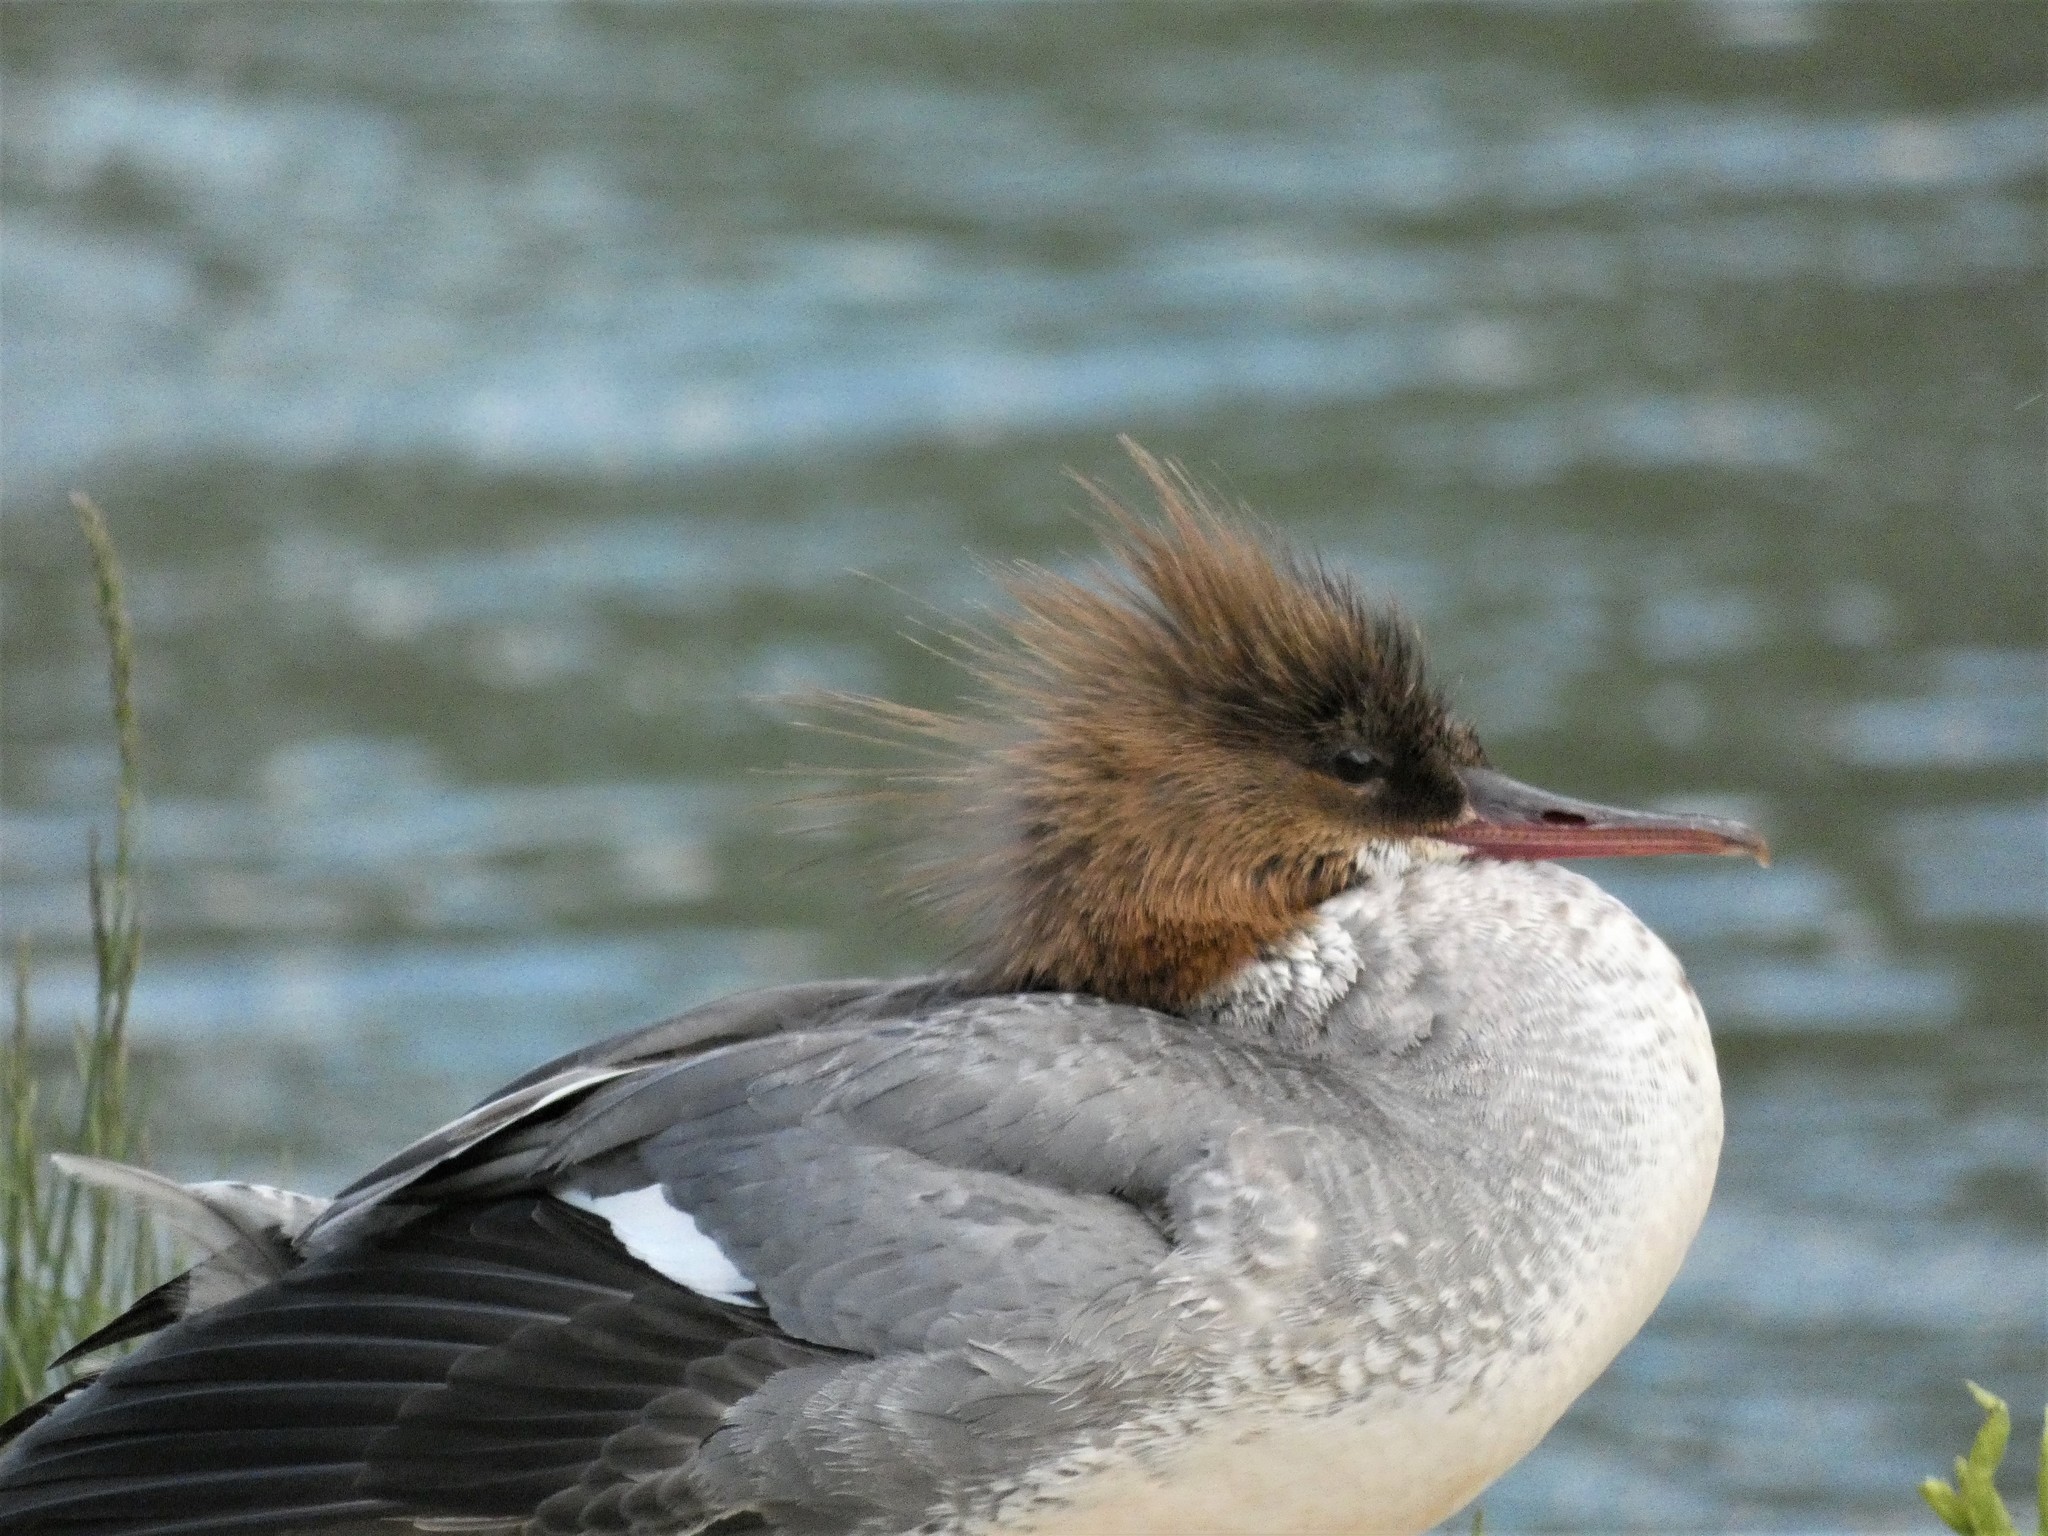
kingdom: Animalia
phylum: Chordata
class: Aves
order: Anseriformes
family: Anatidae
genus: Mergus
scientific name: Mergus merganser
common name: Common merganser
